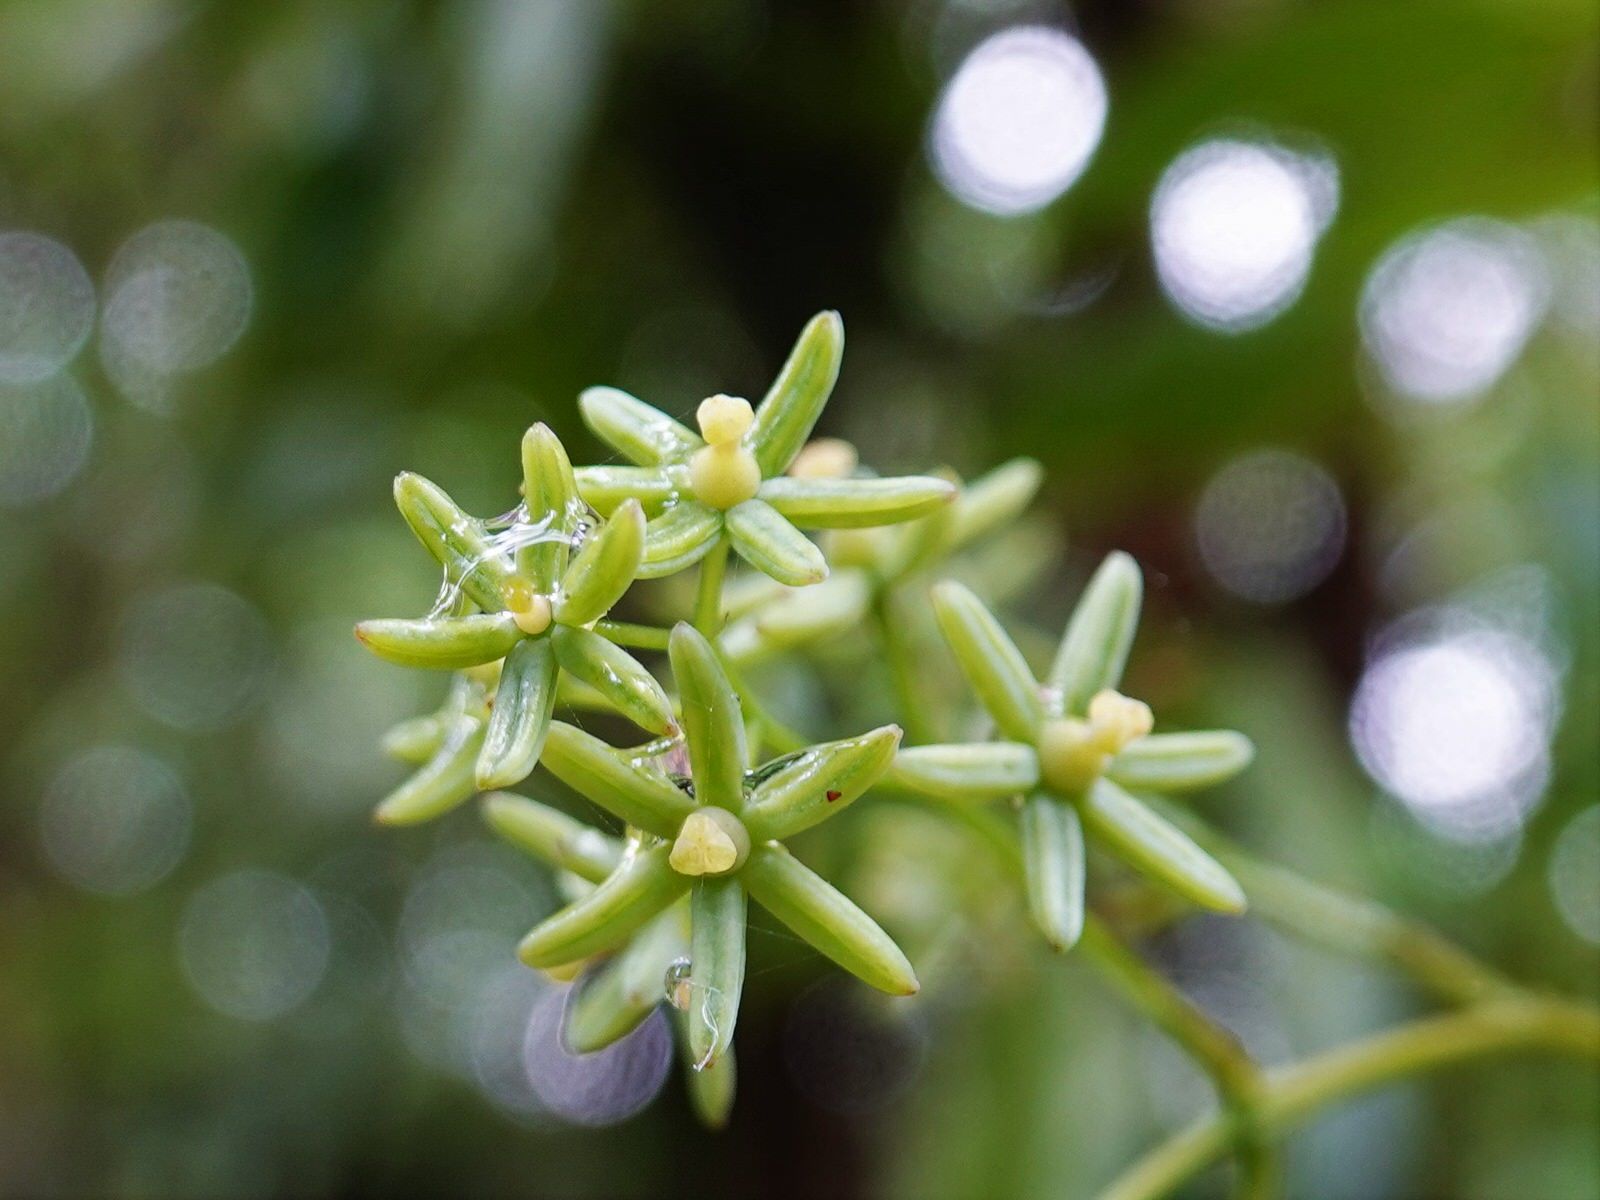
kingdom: Plantae
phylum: Tracheophyta
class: Liliopsida
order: Liliales
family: Ripogonaceae
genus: Ripogonum
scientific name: Ripogonum scandens
